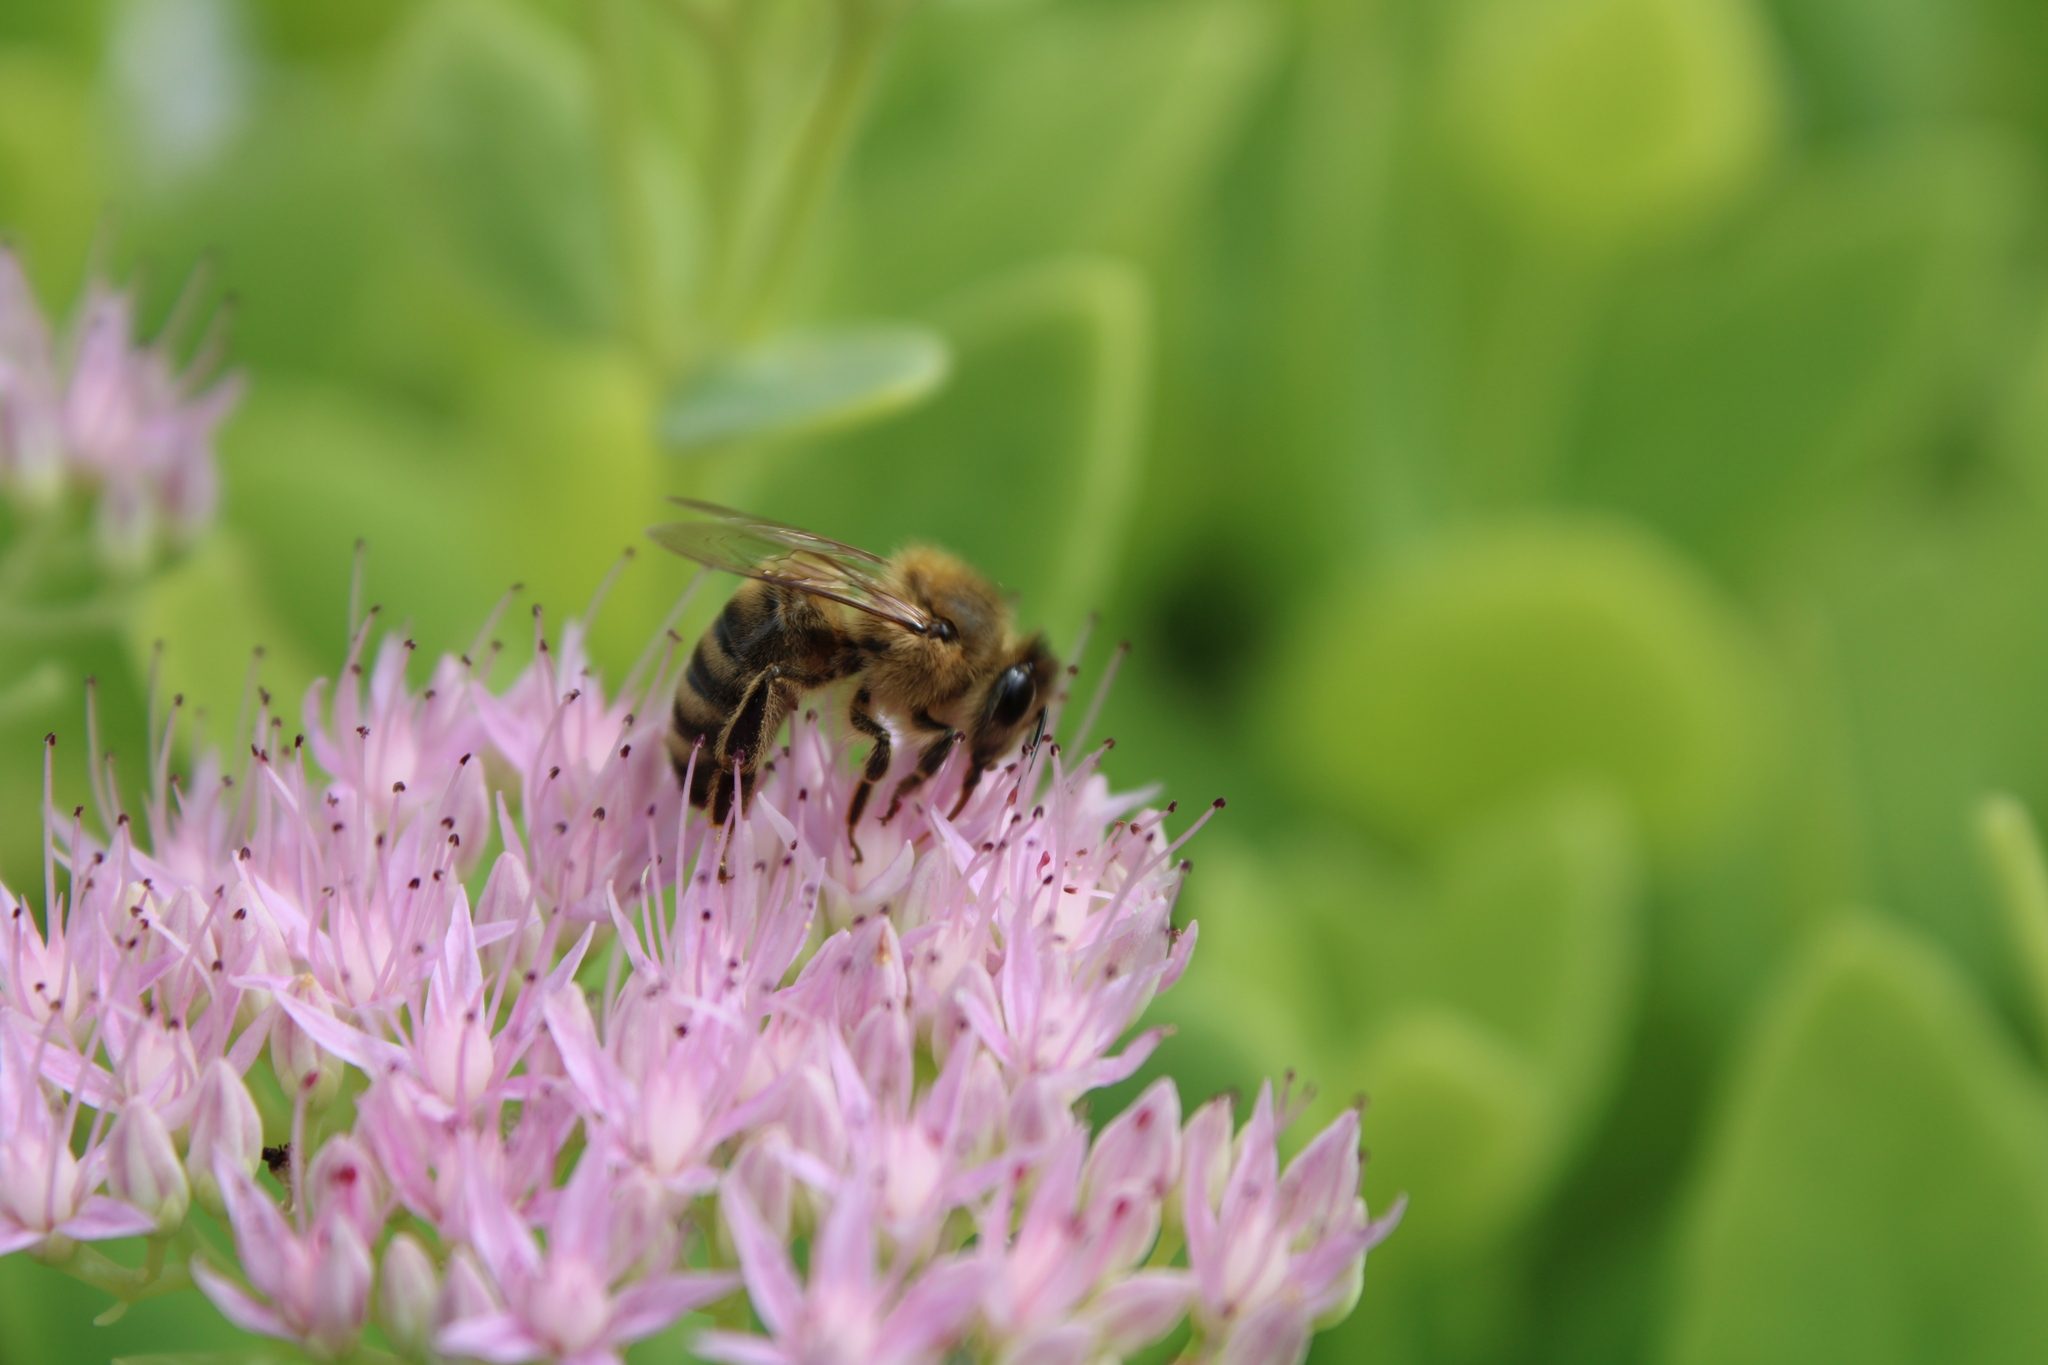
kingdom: Animalia
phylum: Arthropoda
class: Insecta
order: Hymenoptera
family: Apidae
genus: Apis
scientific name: Apis mellifera
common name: Honey bee
